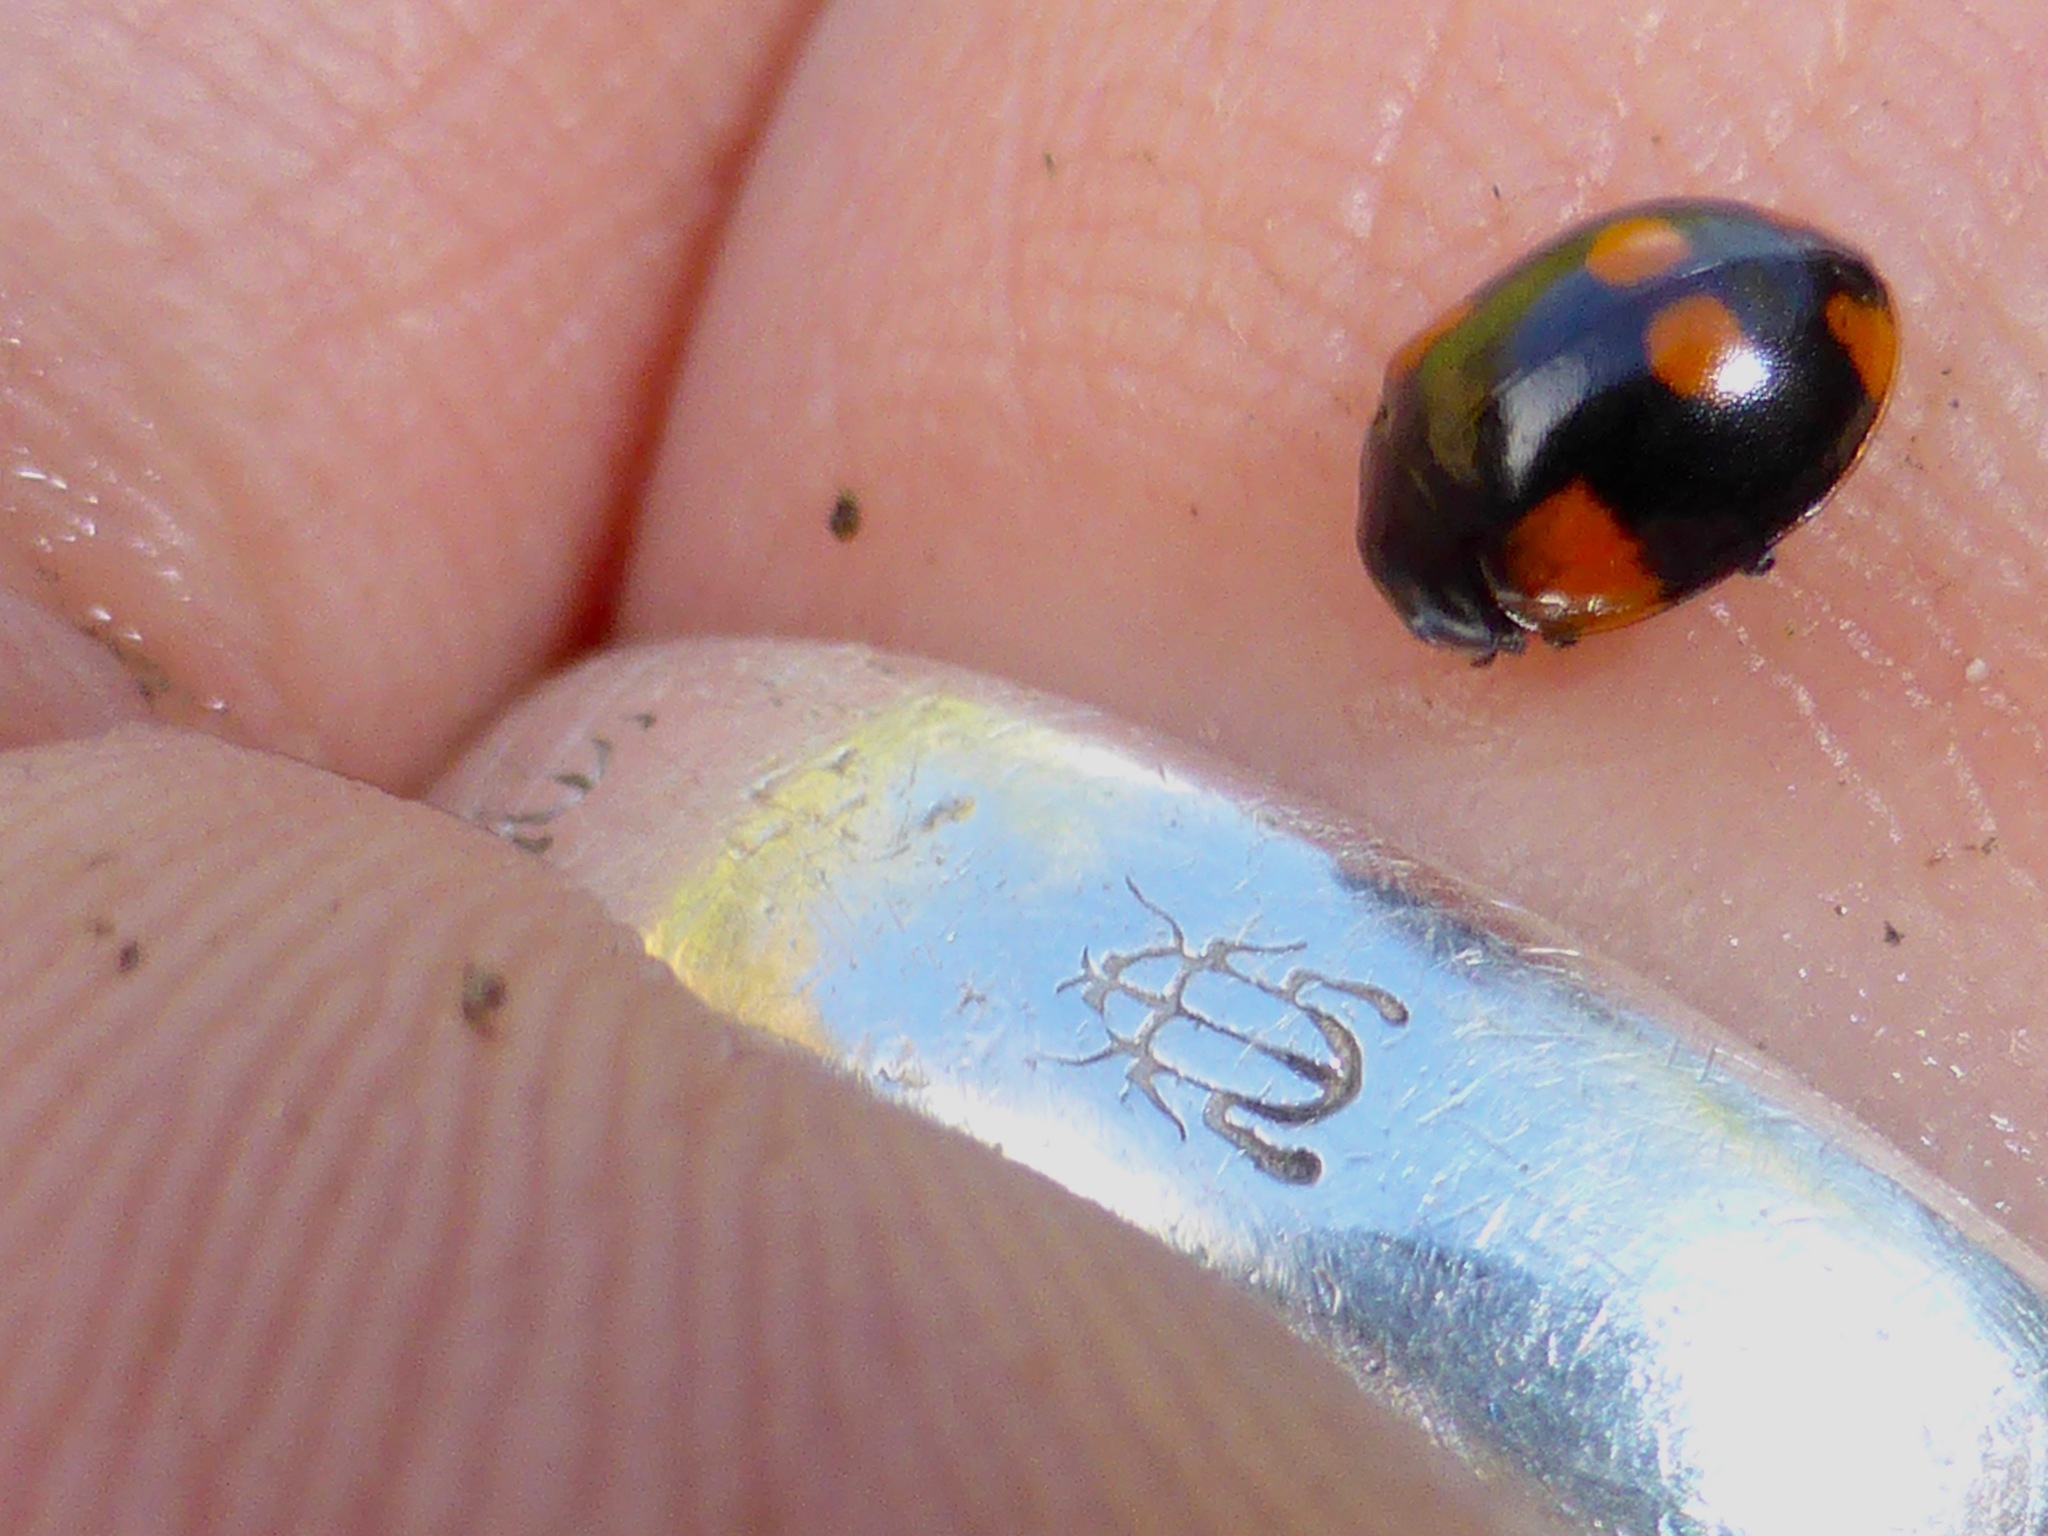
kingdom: Animalia
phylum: Arthropoda
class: Insecta
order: Coleoptera
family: Coccinellidae
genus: Adalia
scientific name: Adalia bipunctata
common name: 2-spot ladybird
